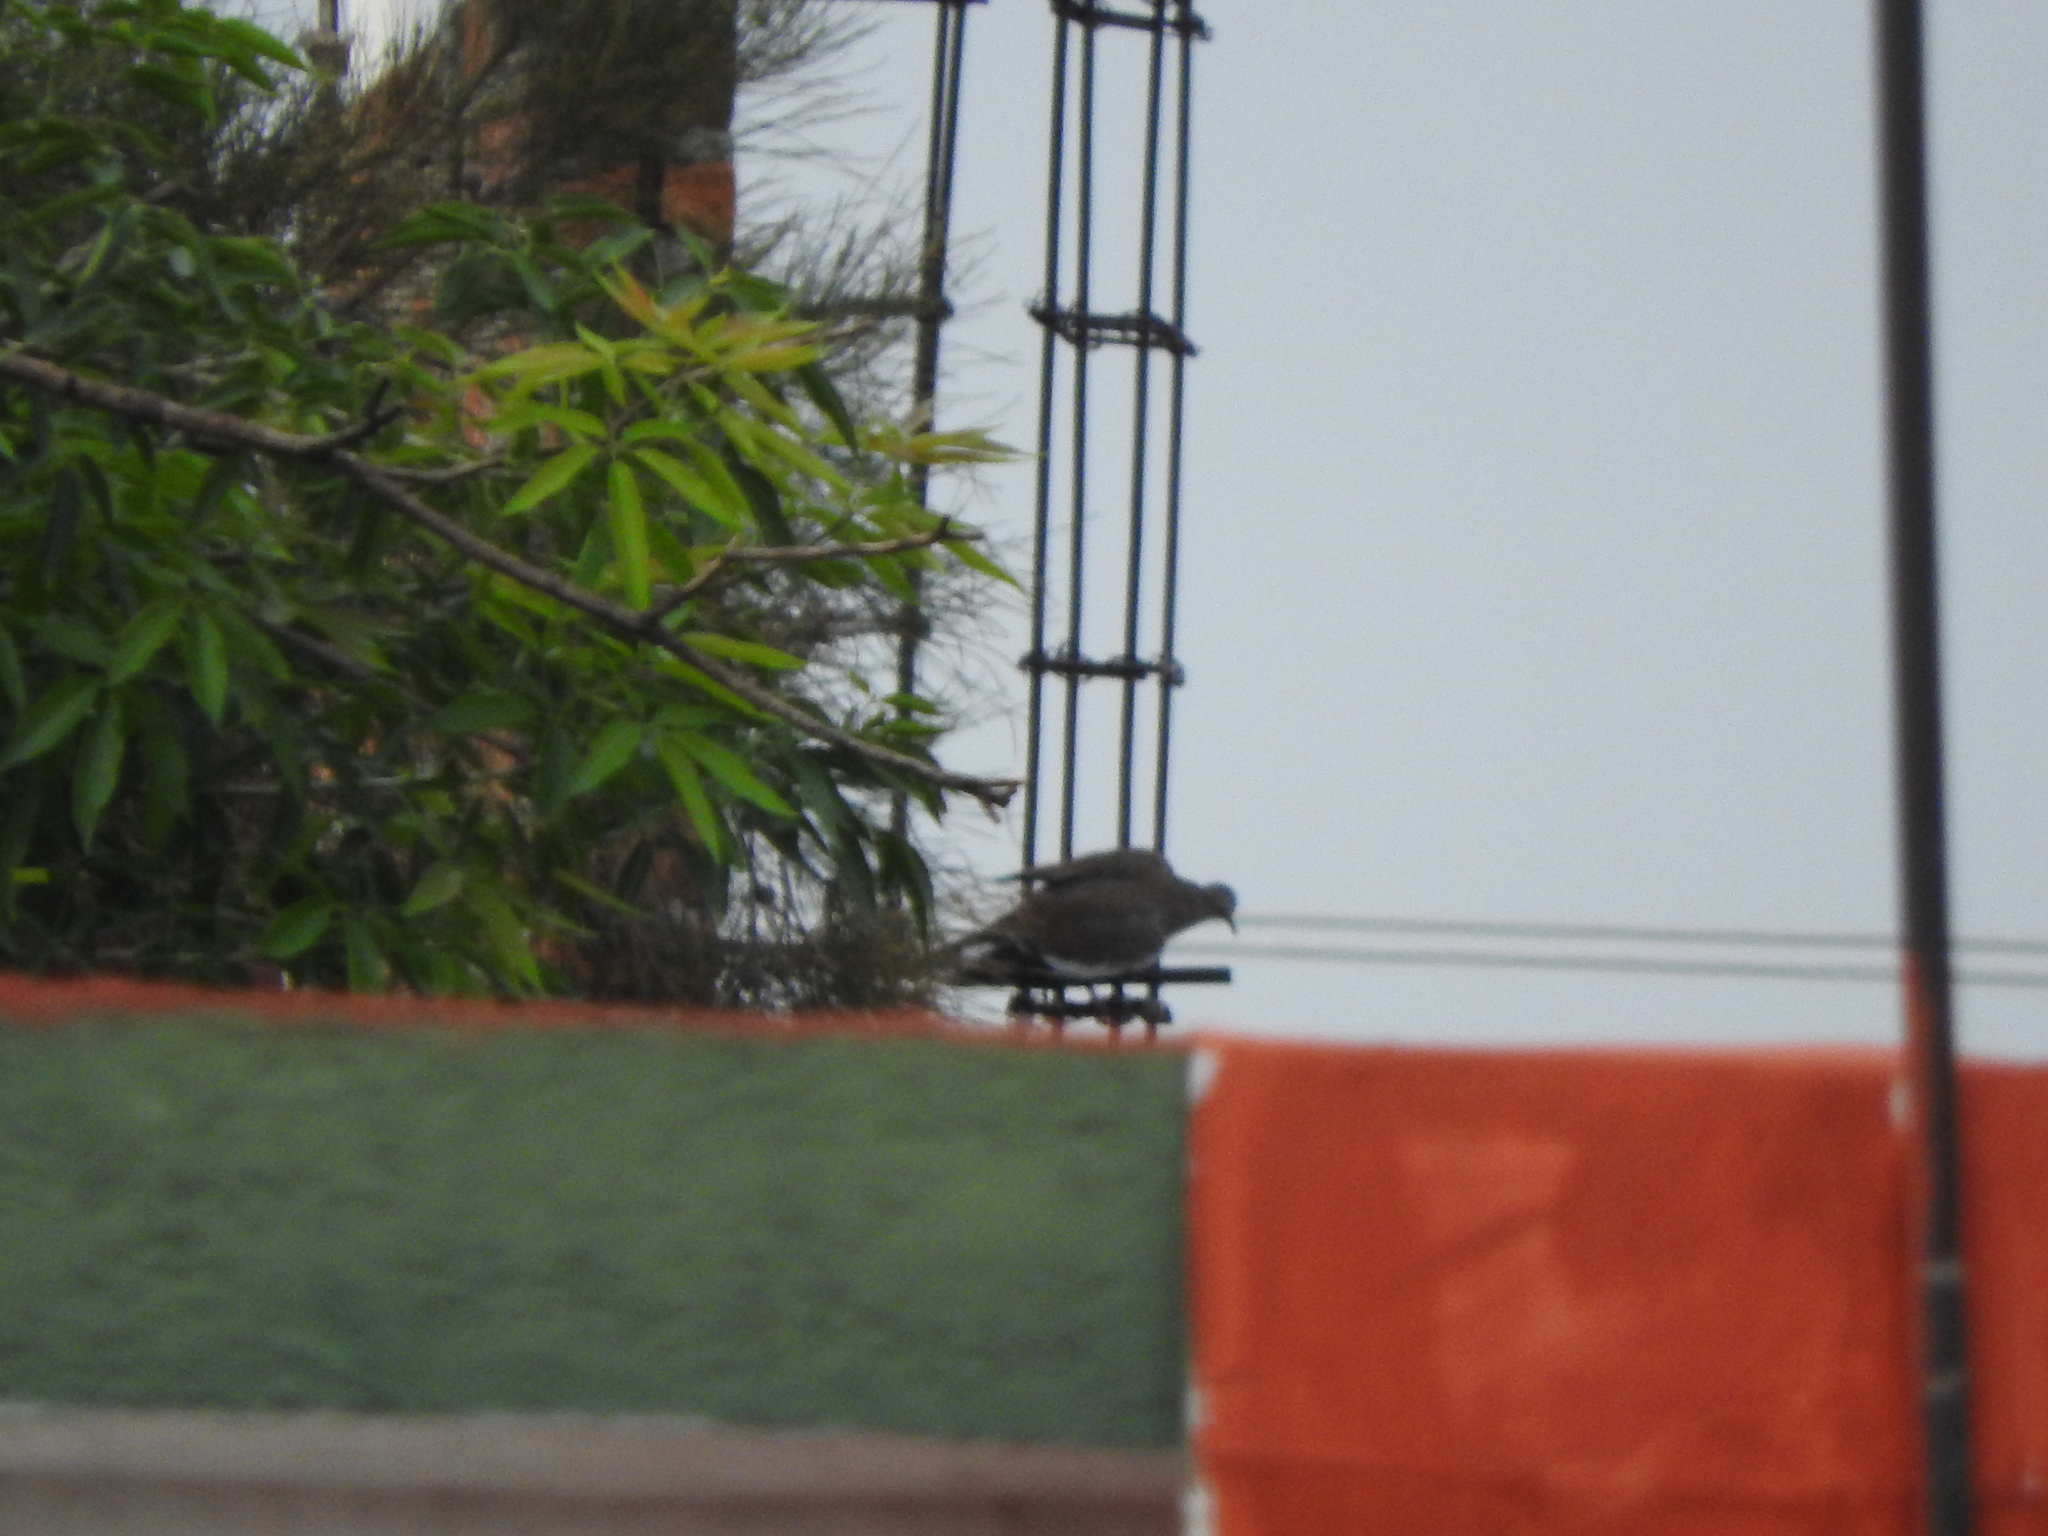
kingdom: Animalia
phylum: Chordata
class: Aves
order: Columbiformes
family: Columbidae
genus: Zenaida
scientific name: Zenaida asiatica
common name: White-winged dove
